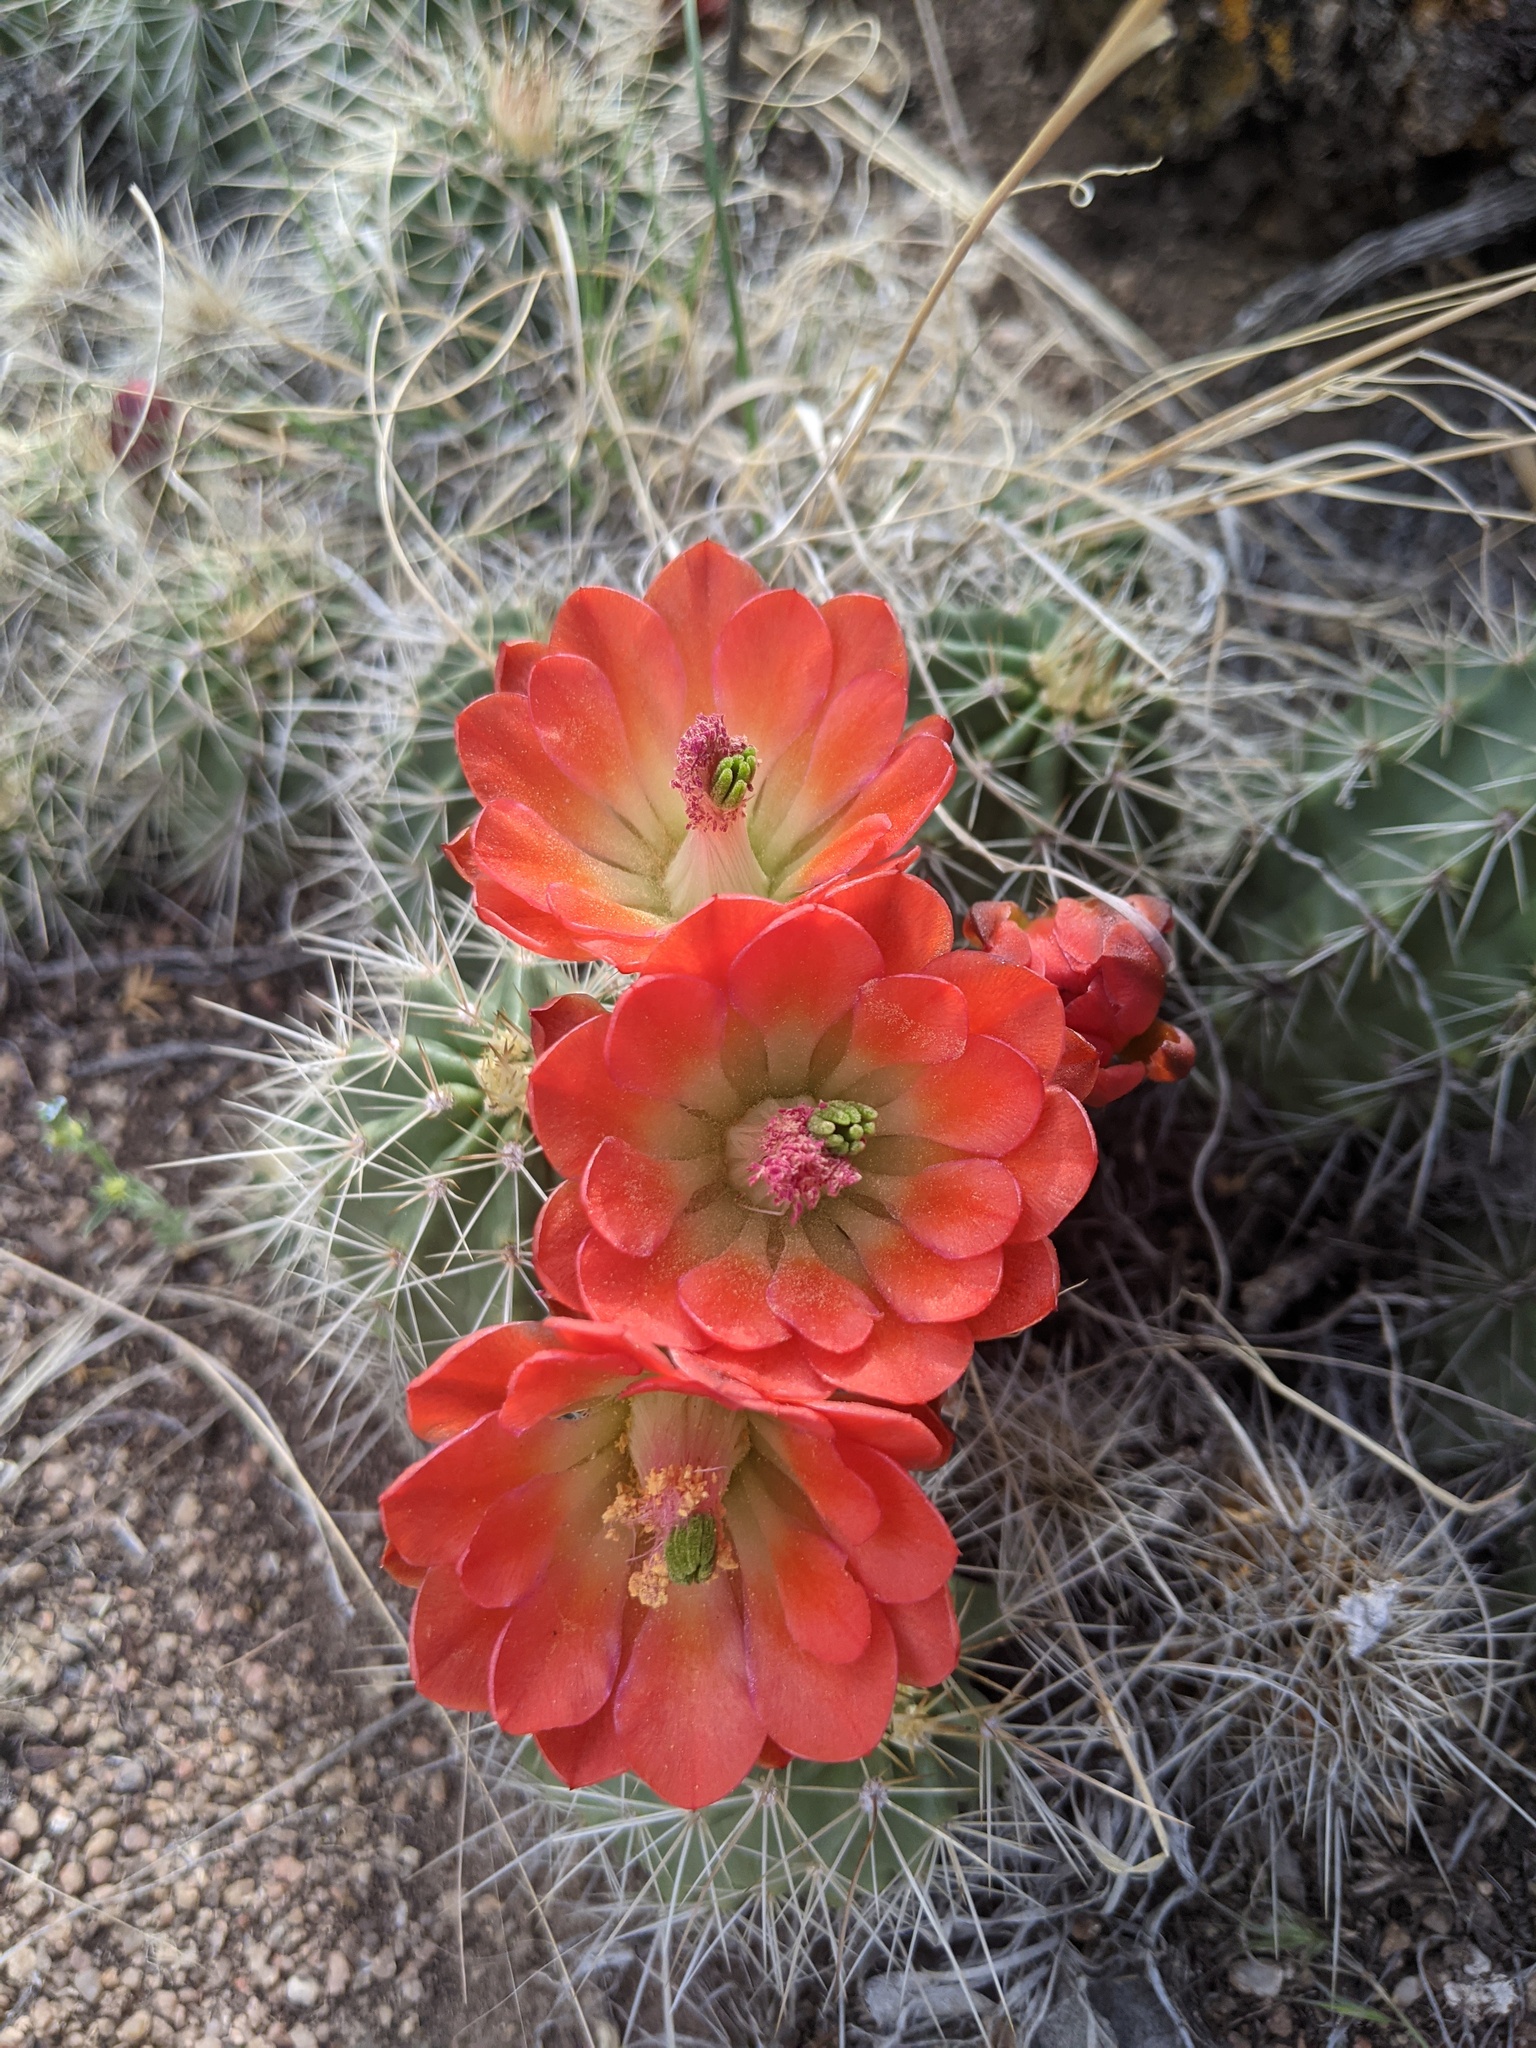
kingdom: Plantae
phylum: Tracheophyta
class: Magnoliopsida
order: Caryophyllales
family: Cactaceae
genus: Echinocereus
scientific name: Echinocereus coccineus
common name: Scarlet hedgehog cactus
